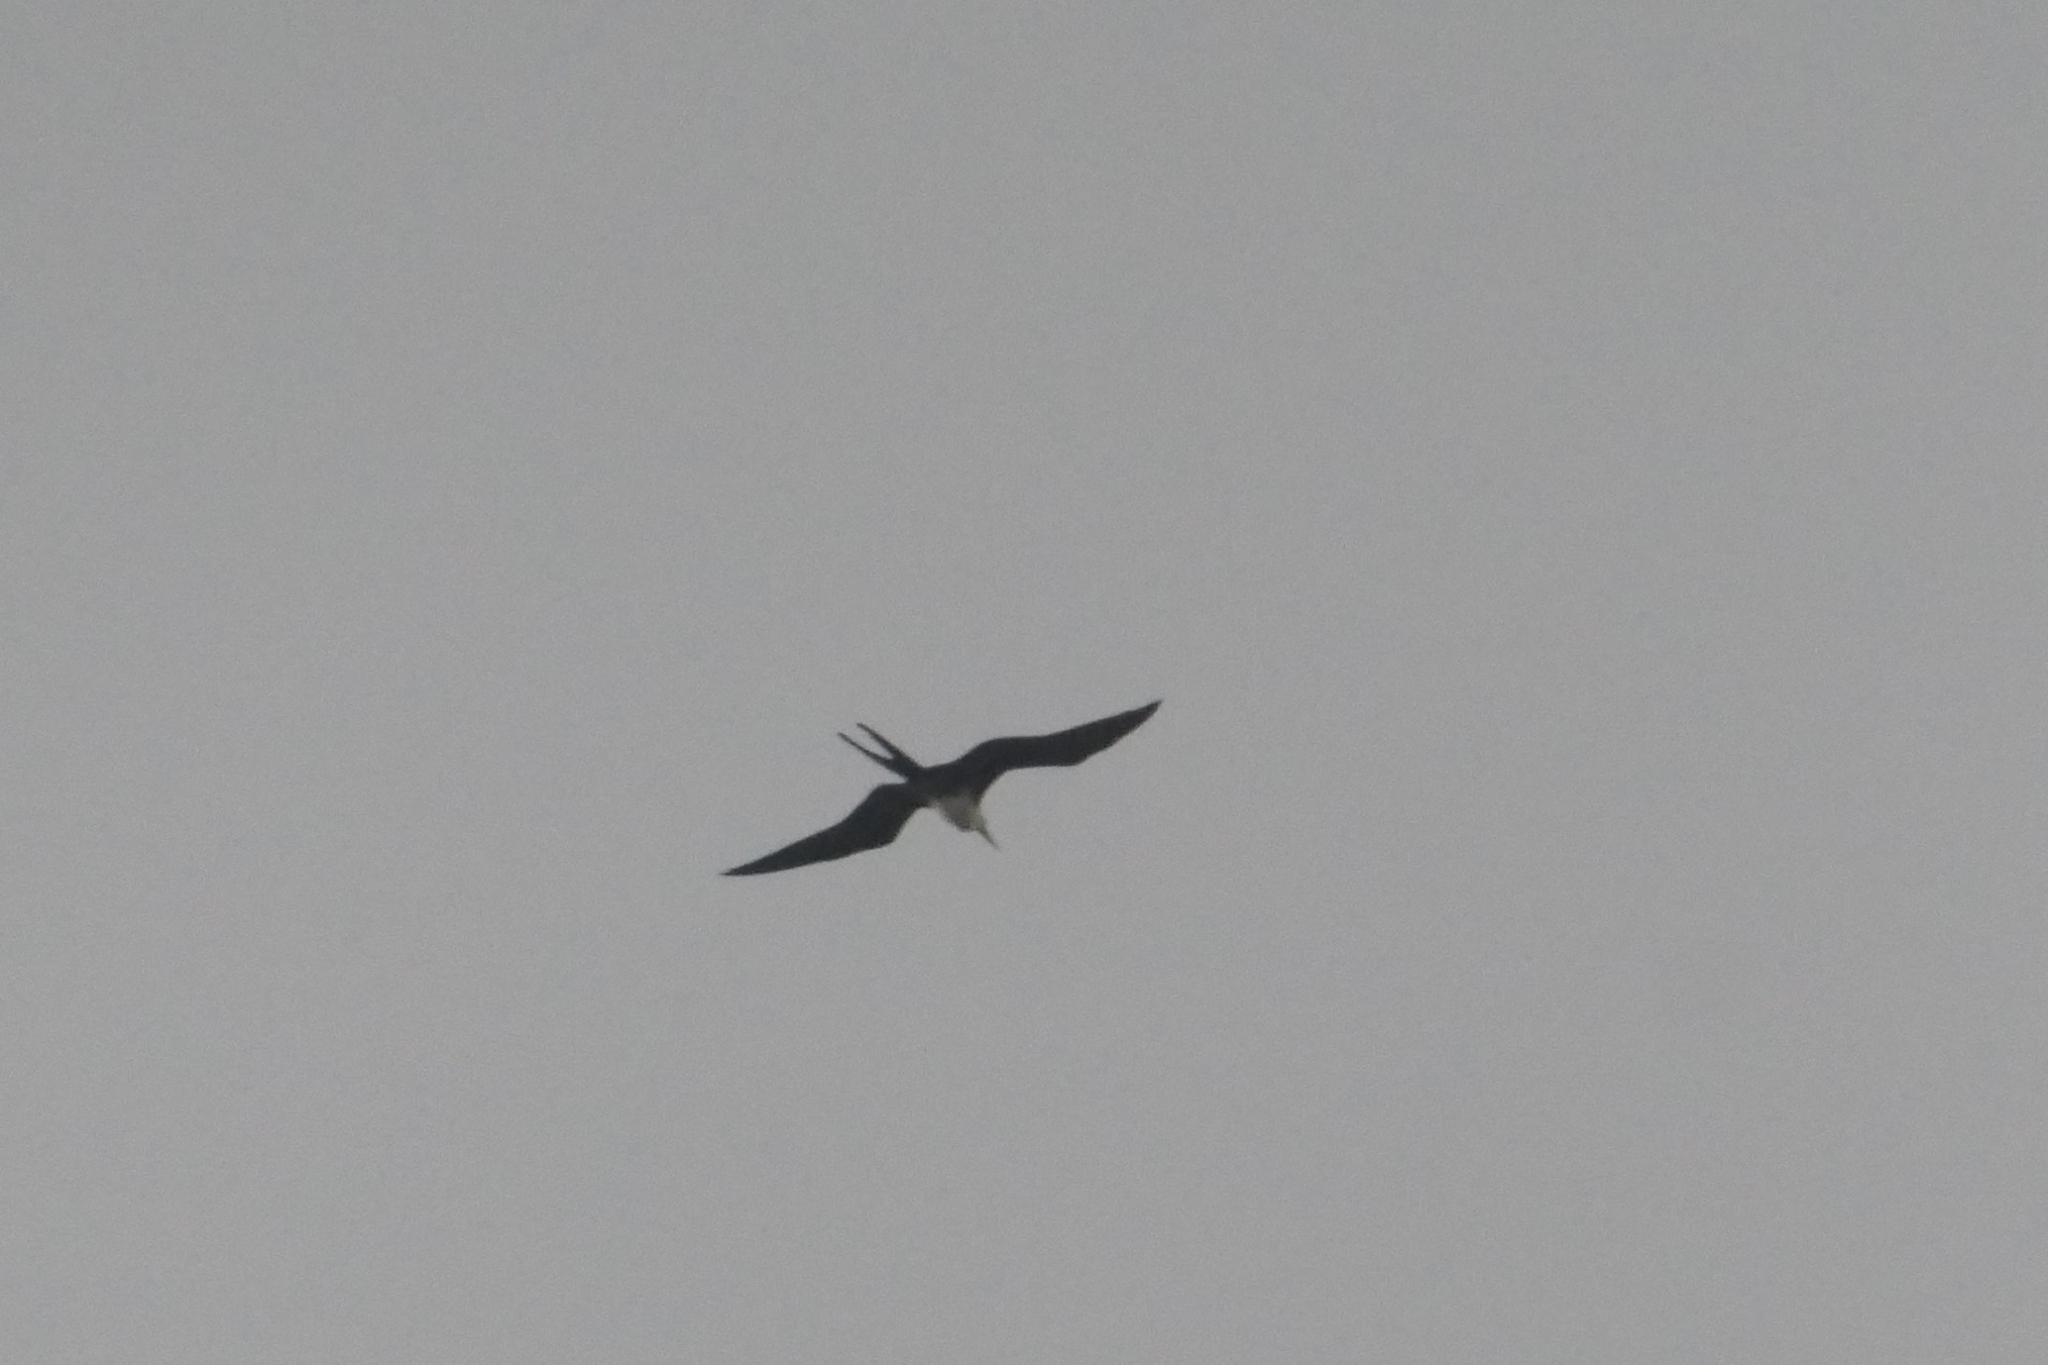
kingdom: Animalia
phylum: Chordata
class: Aves
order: Suliformes
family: Fregatidae
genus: Fregata
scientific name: Fregata magnificens
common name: Magnificent frigatebird
